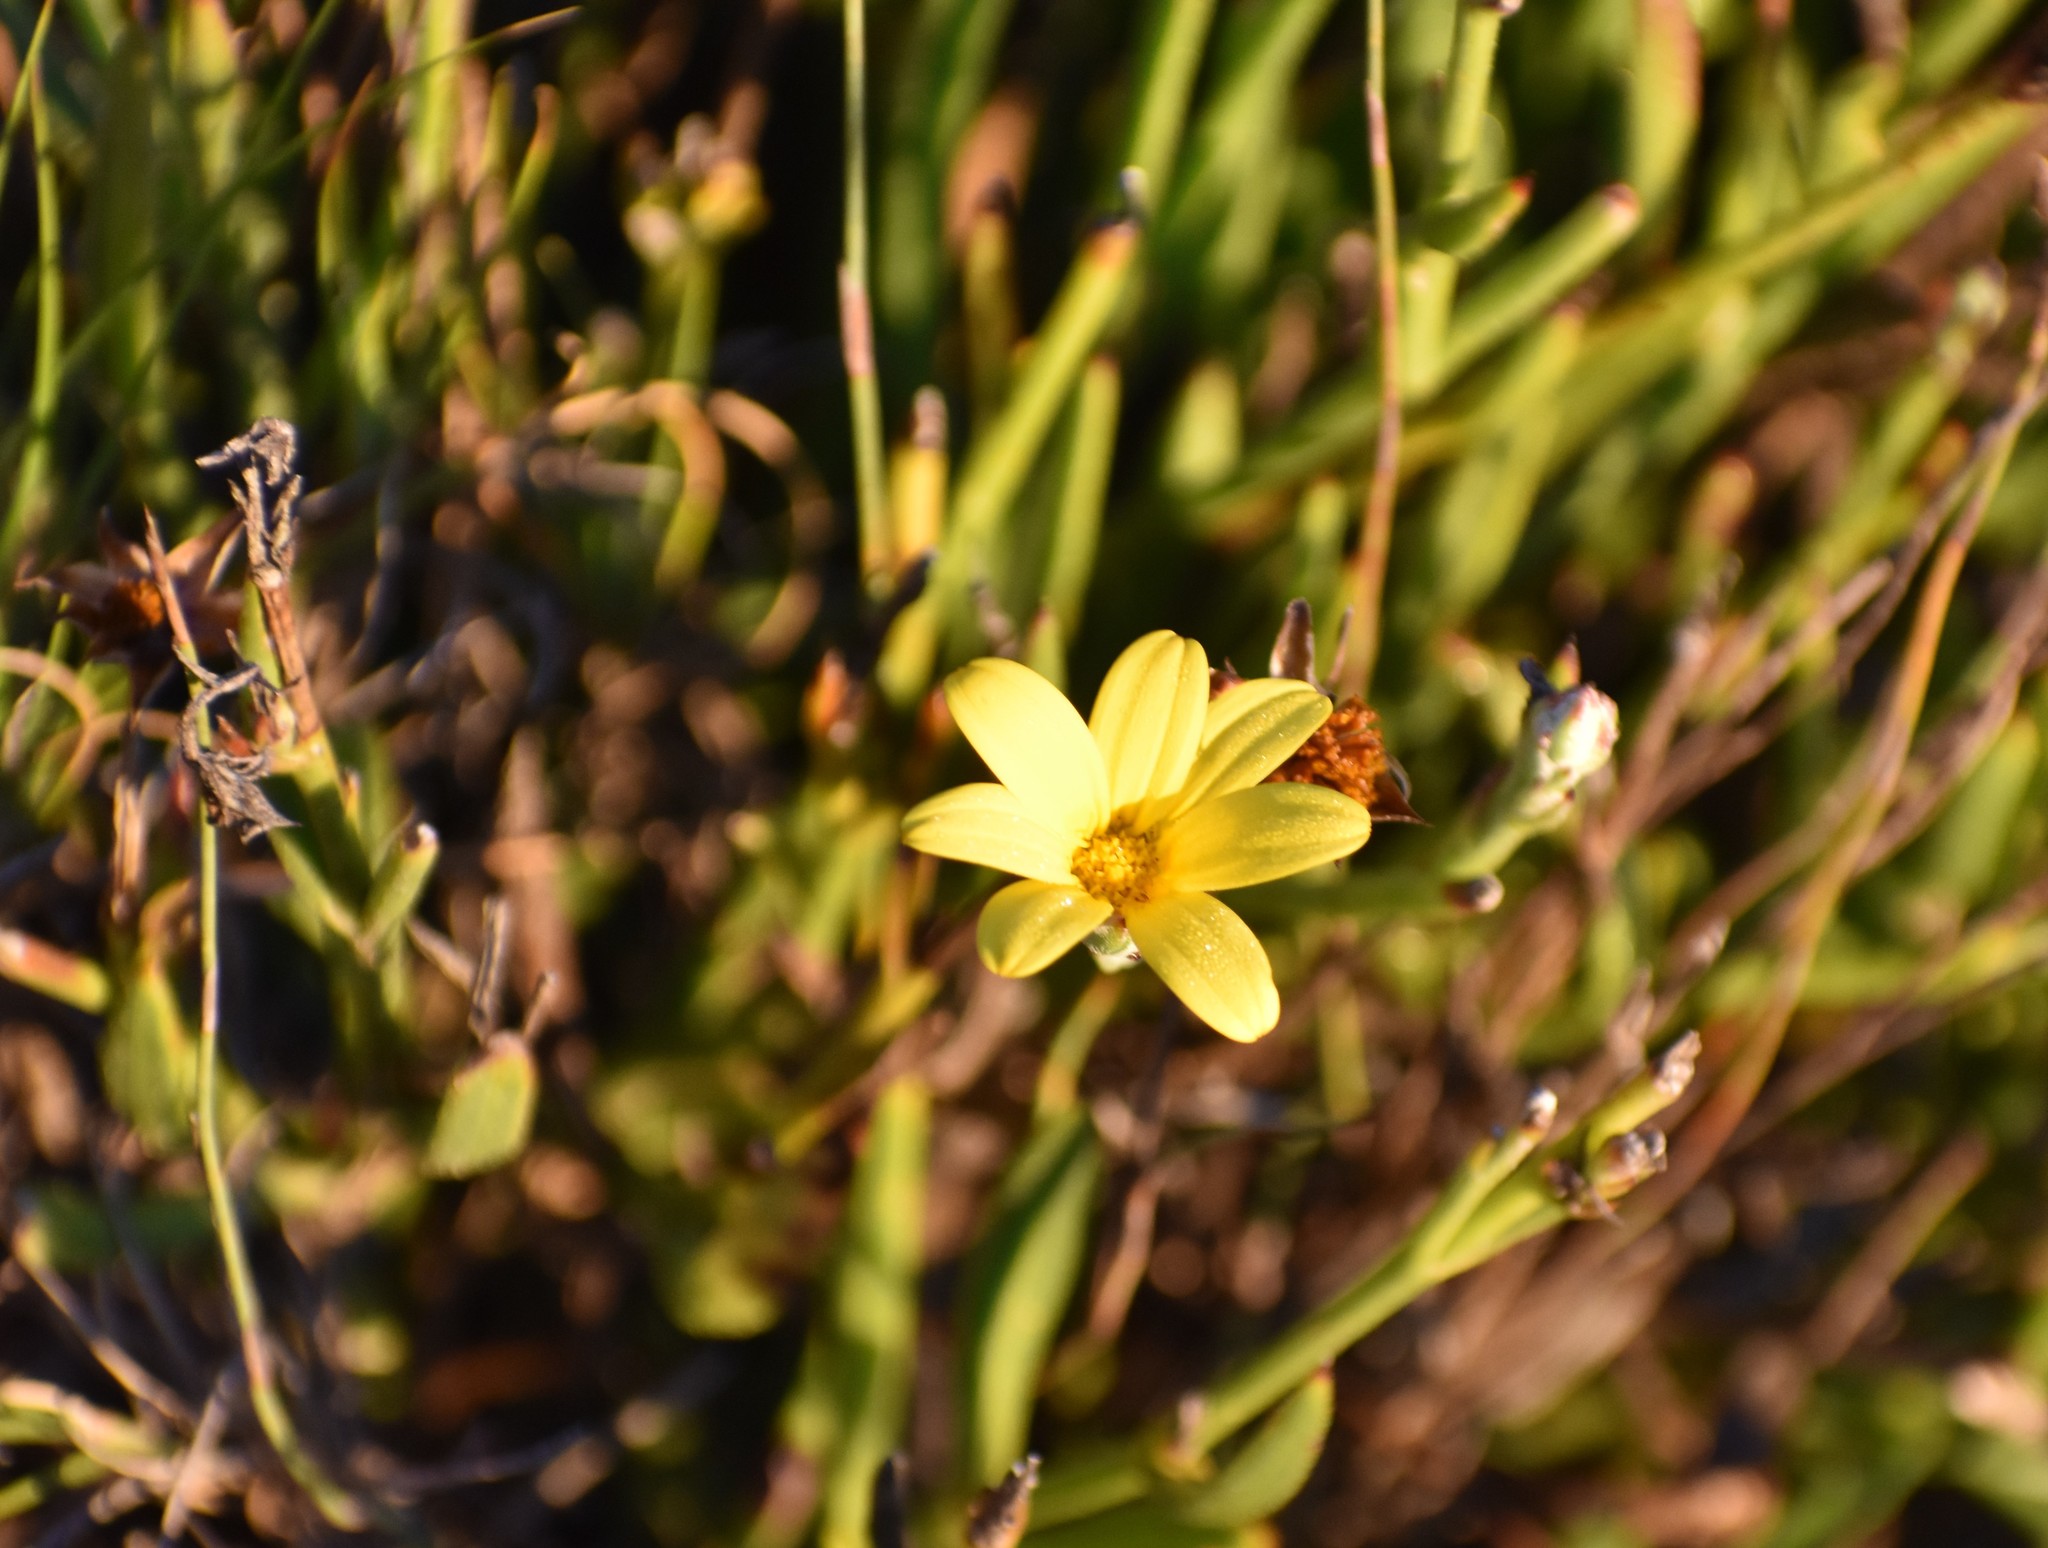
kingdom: Plantae
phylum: Tracheophyta
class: Magnoliopsida
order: Asterales
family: Asteraceae
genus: Osteospermum
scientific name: Osteospermum asperulum
